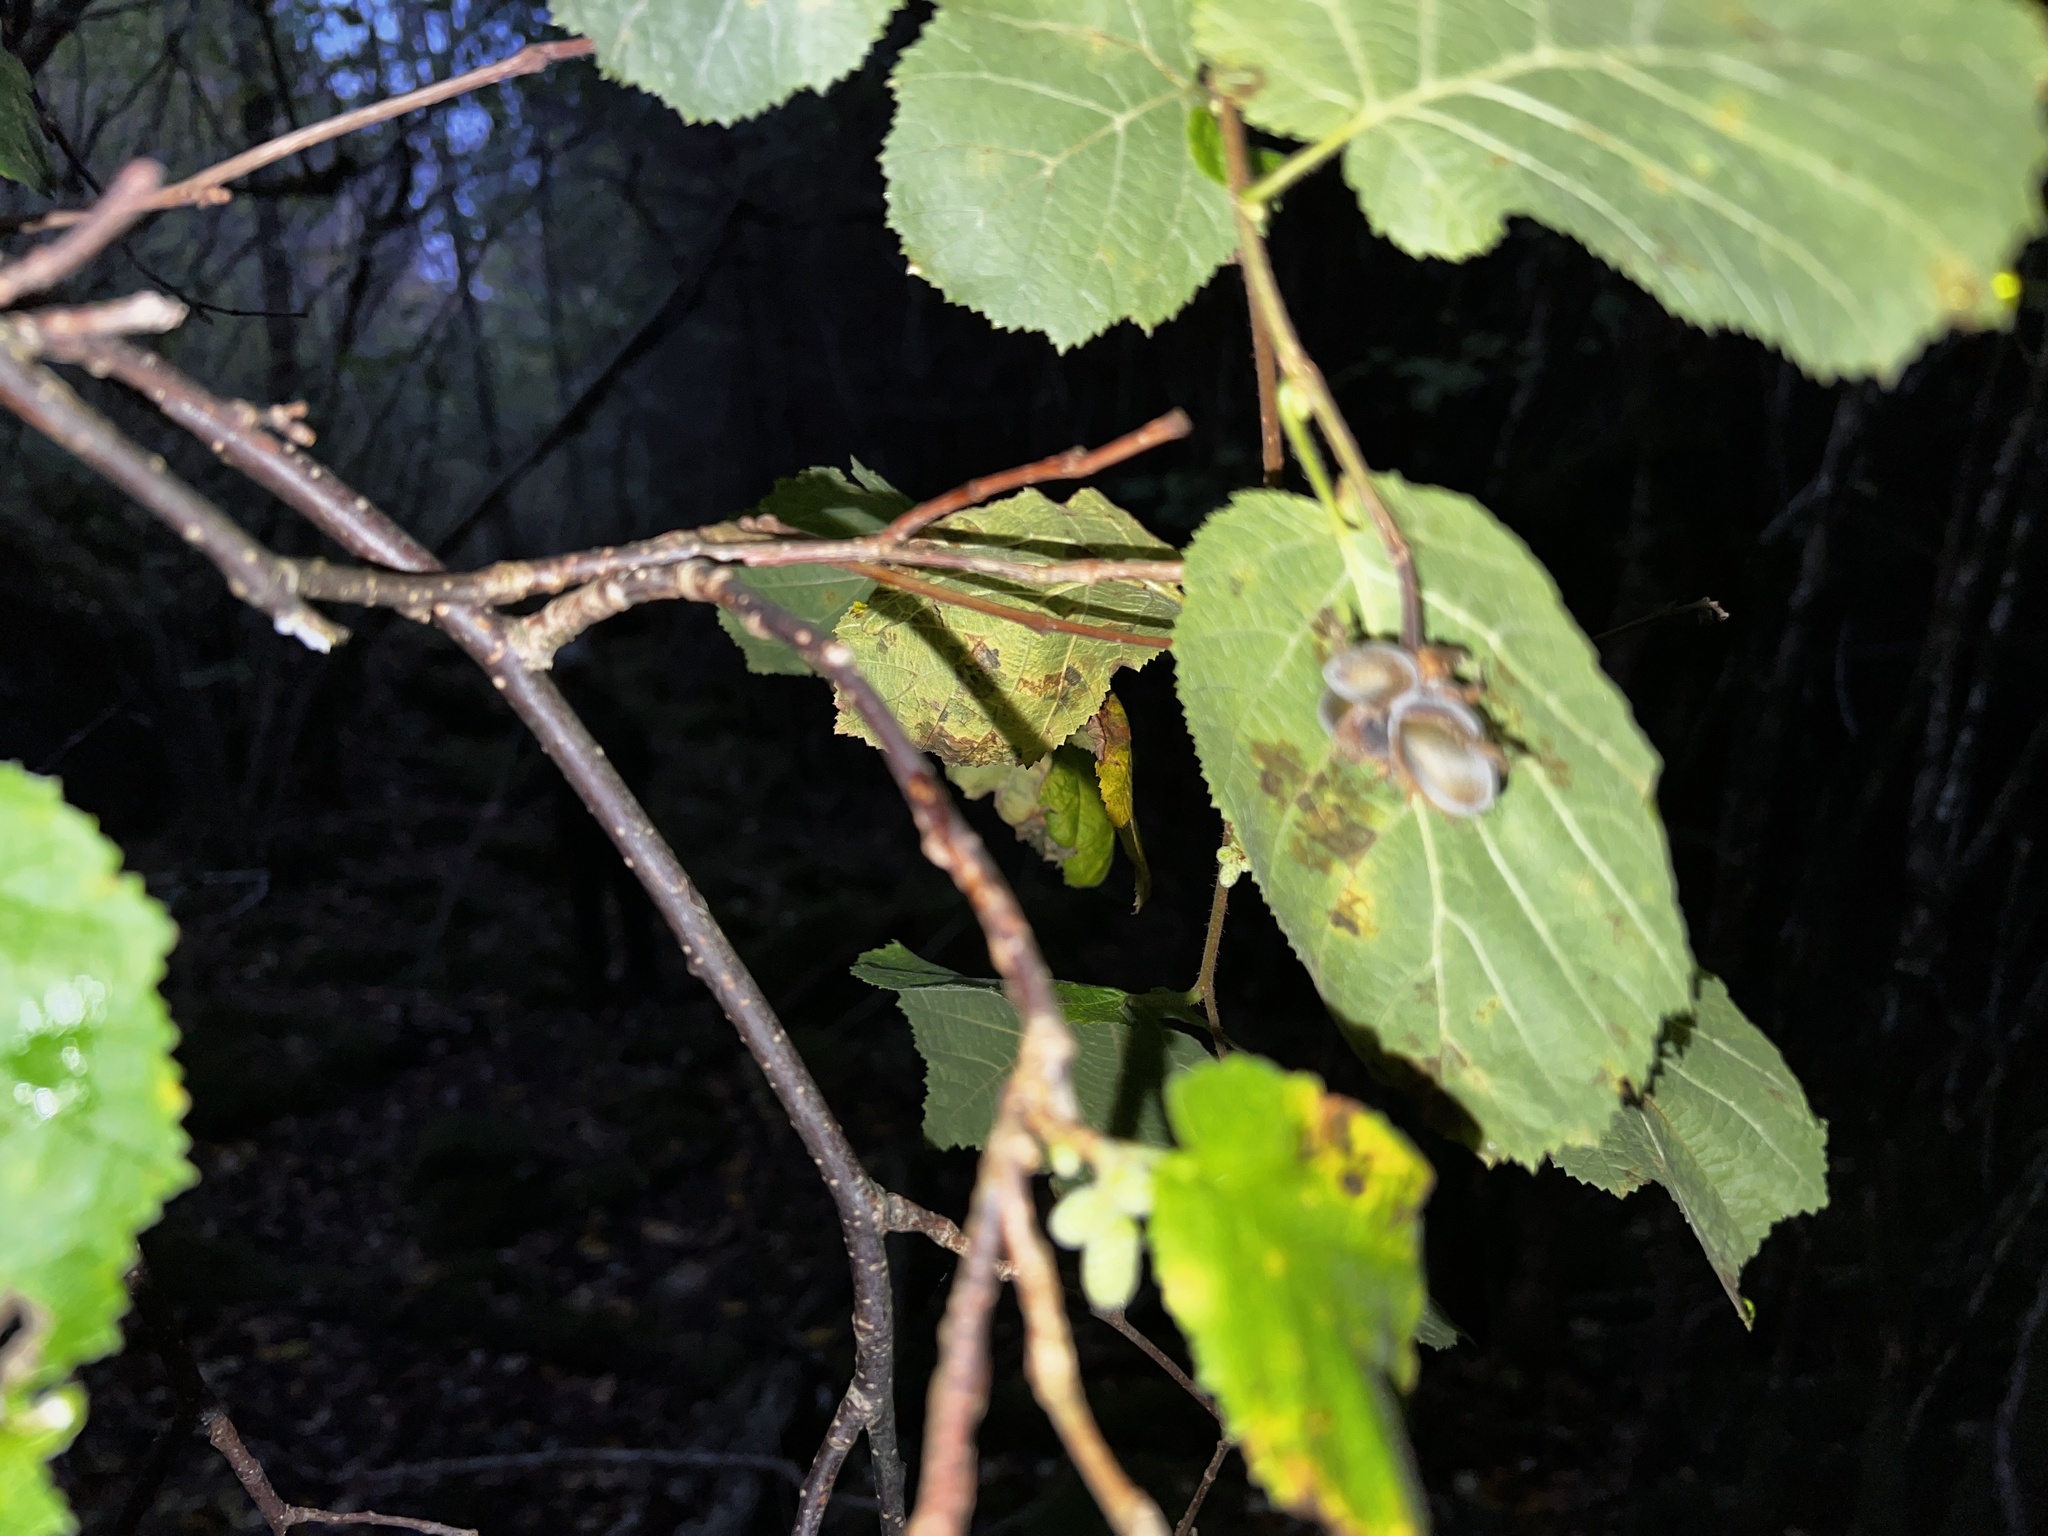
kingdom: Plantae
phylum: Tracheophyta
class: Magnoliopsida
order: Fagales
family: Betulaceae
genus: Corylus
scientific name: Corylus avellana
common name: European hazel
